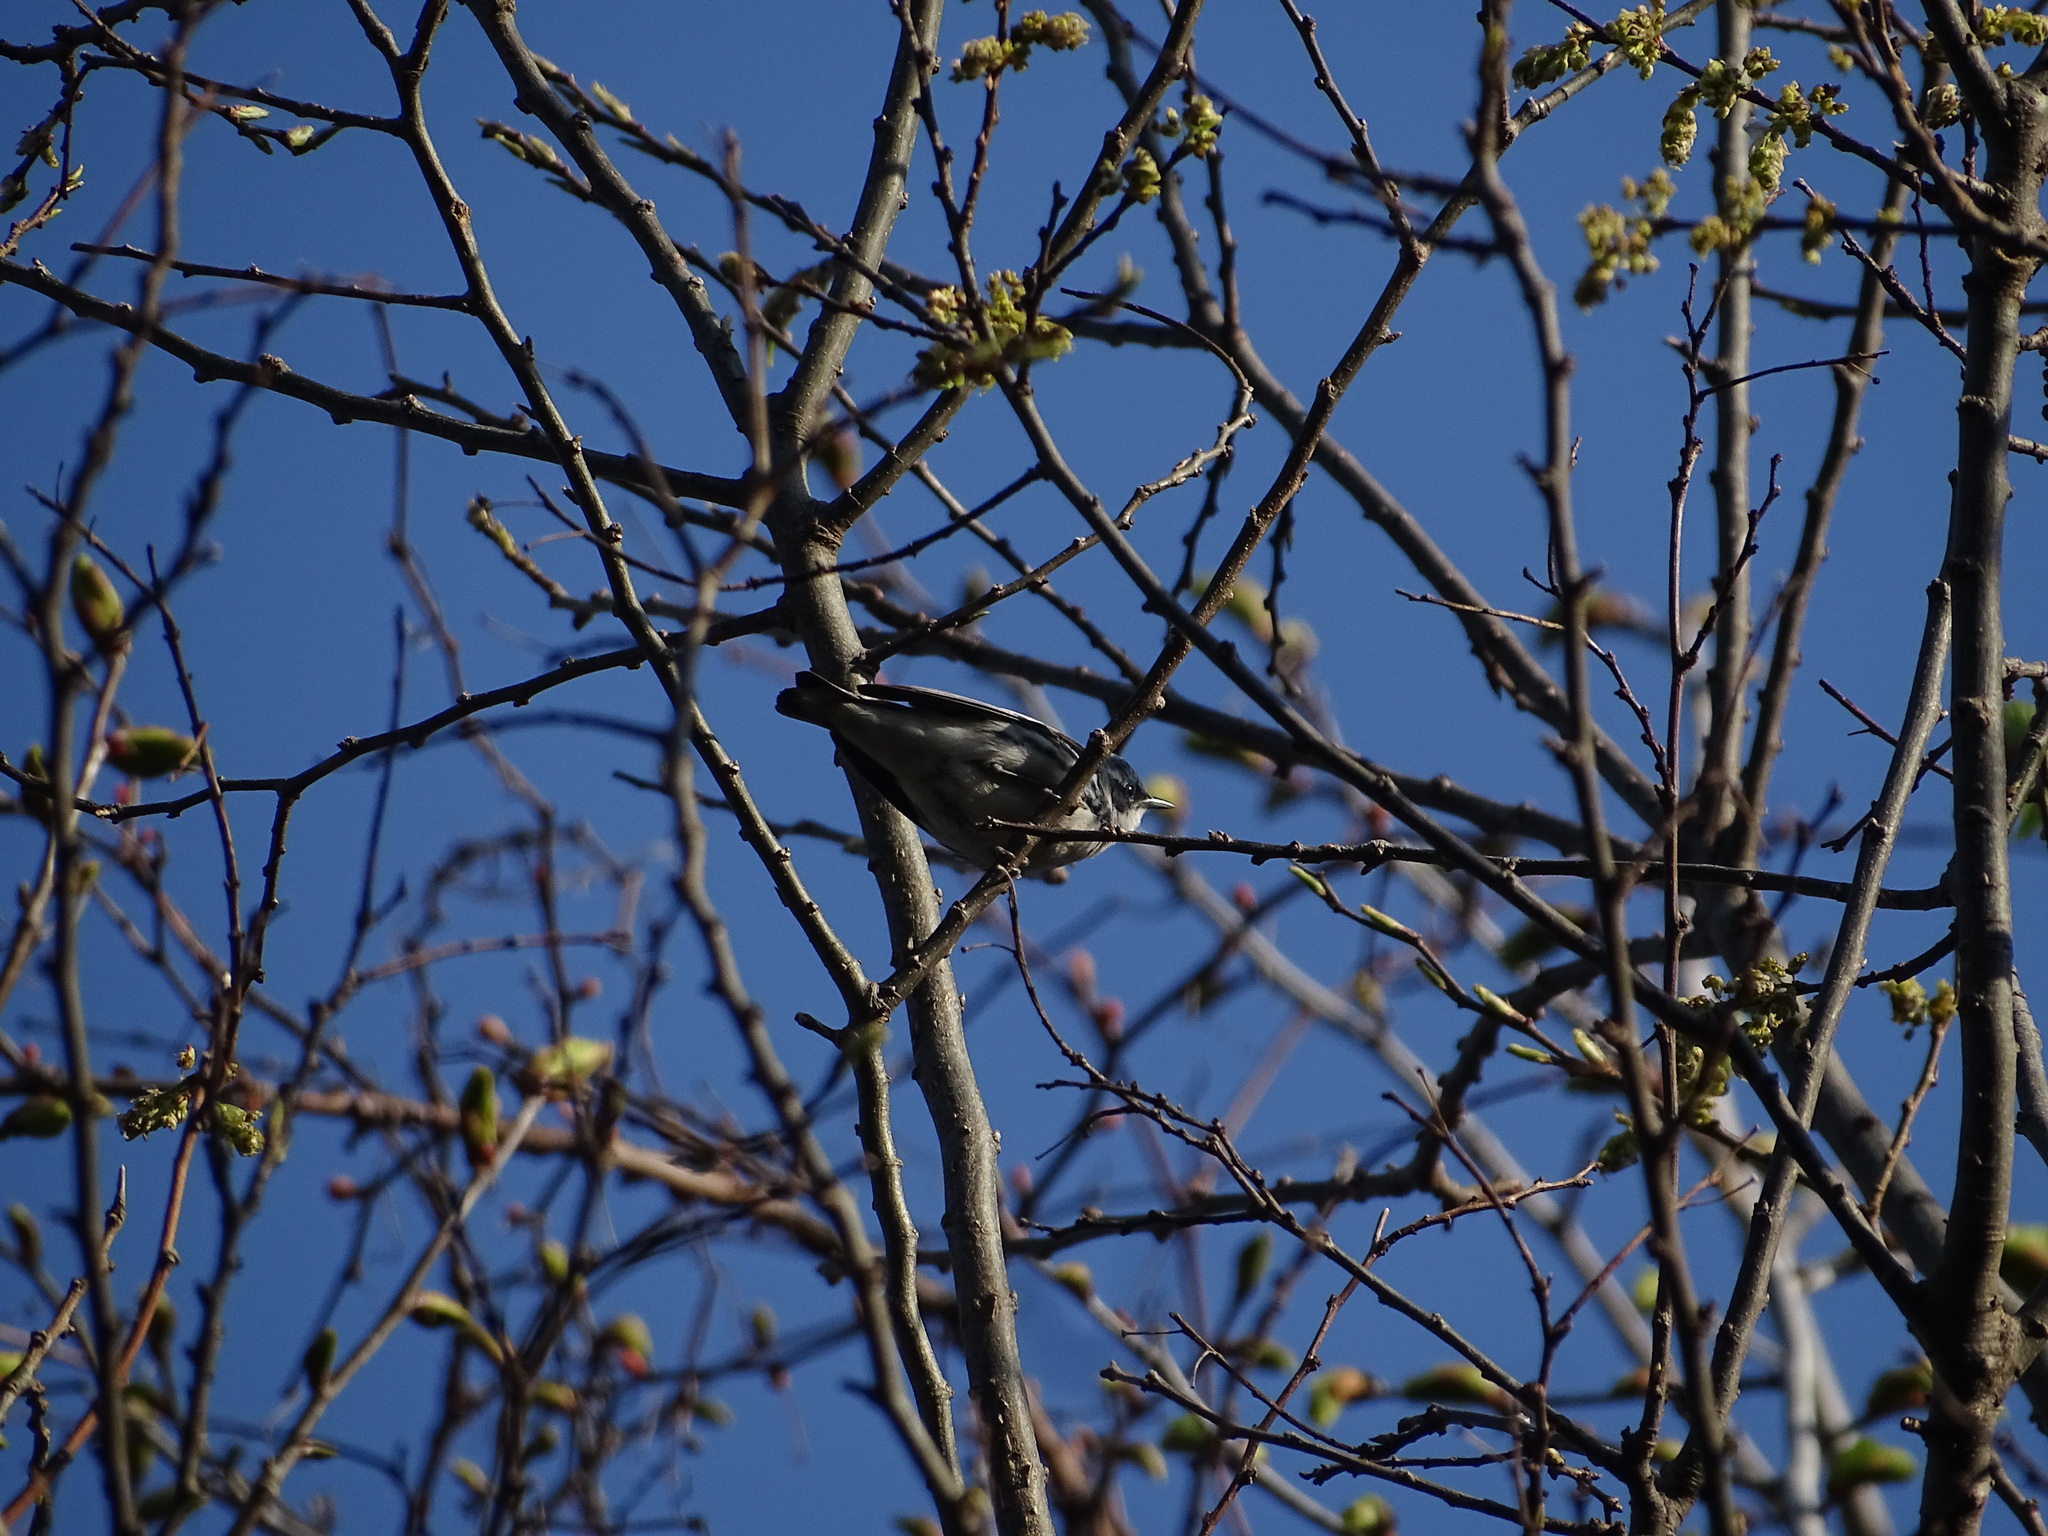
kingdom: Animalia
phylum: Chordata
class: Aves
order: Passeriformes
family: Parulidae
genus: Setophaga
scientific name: Setophaga cerulea
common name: Cerulean warbler
